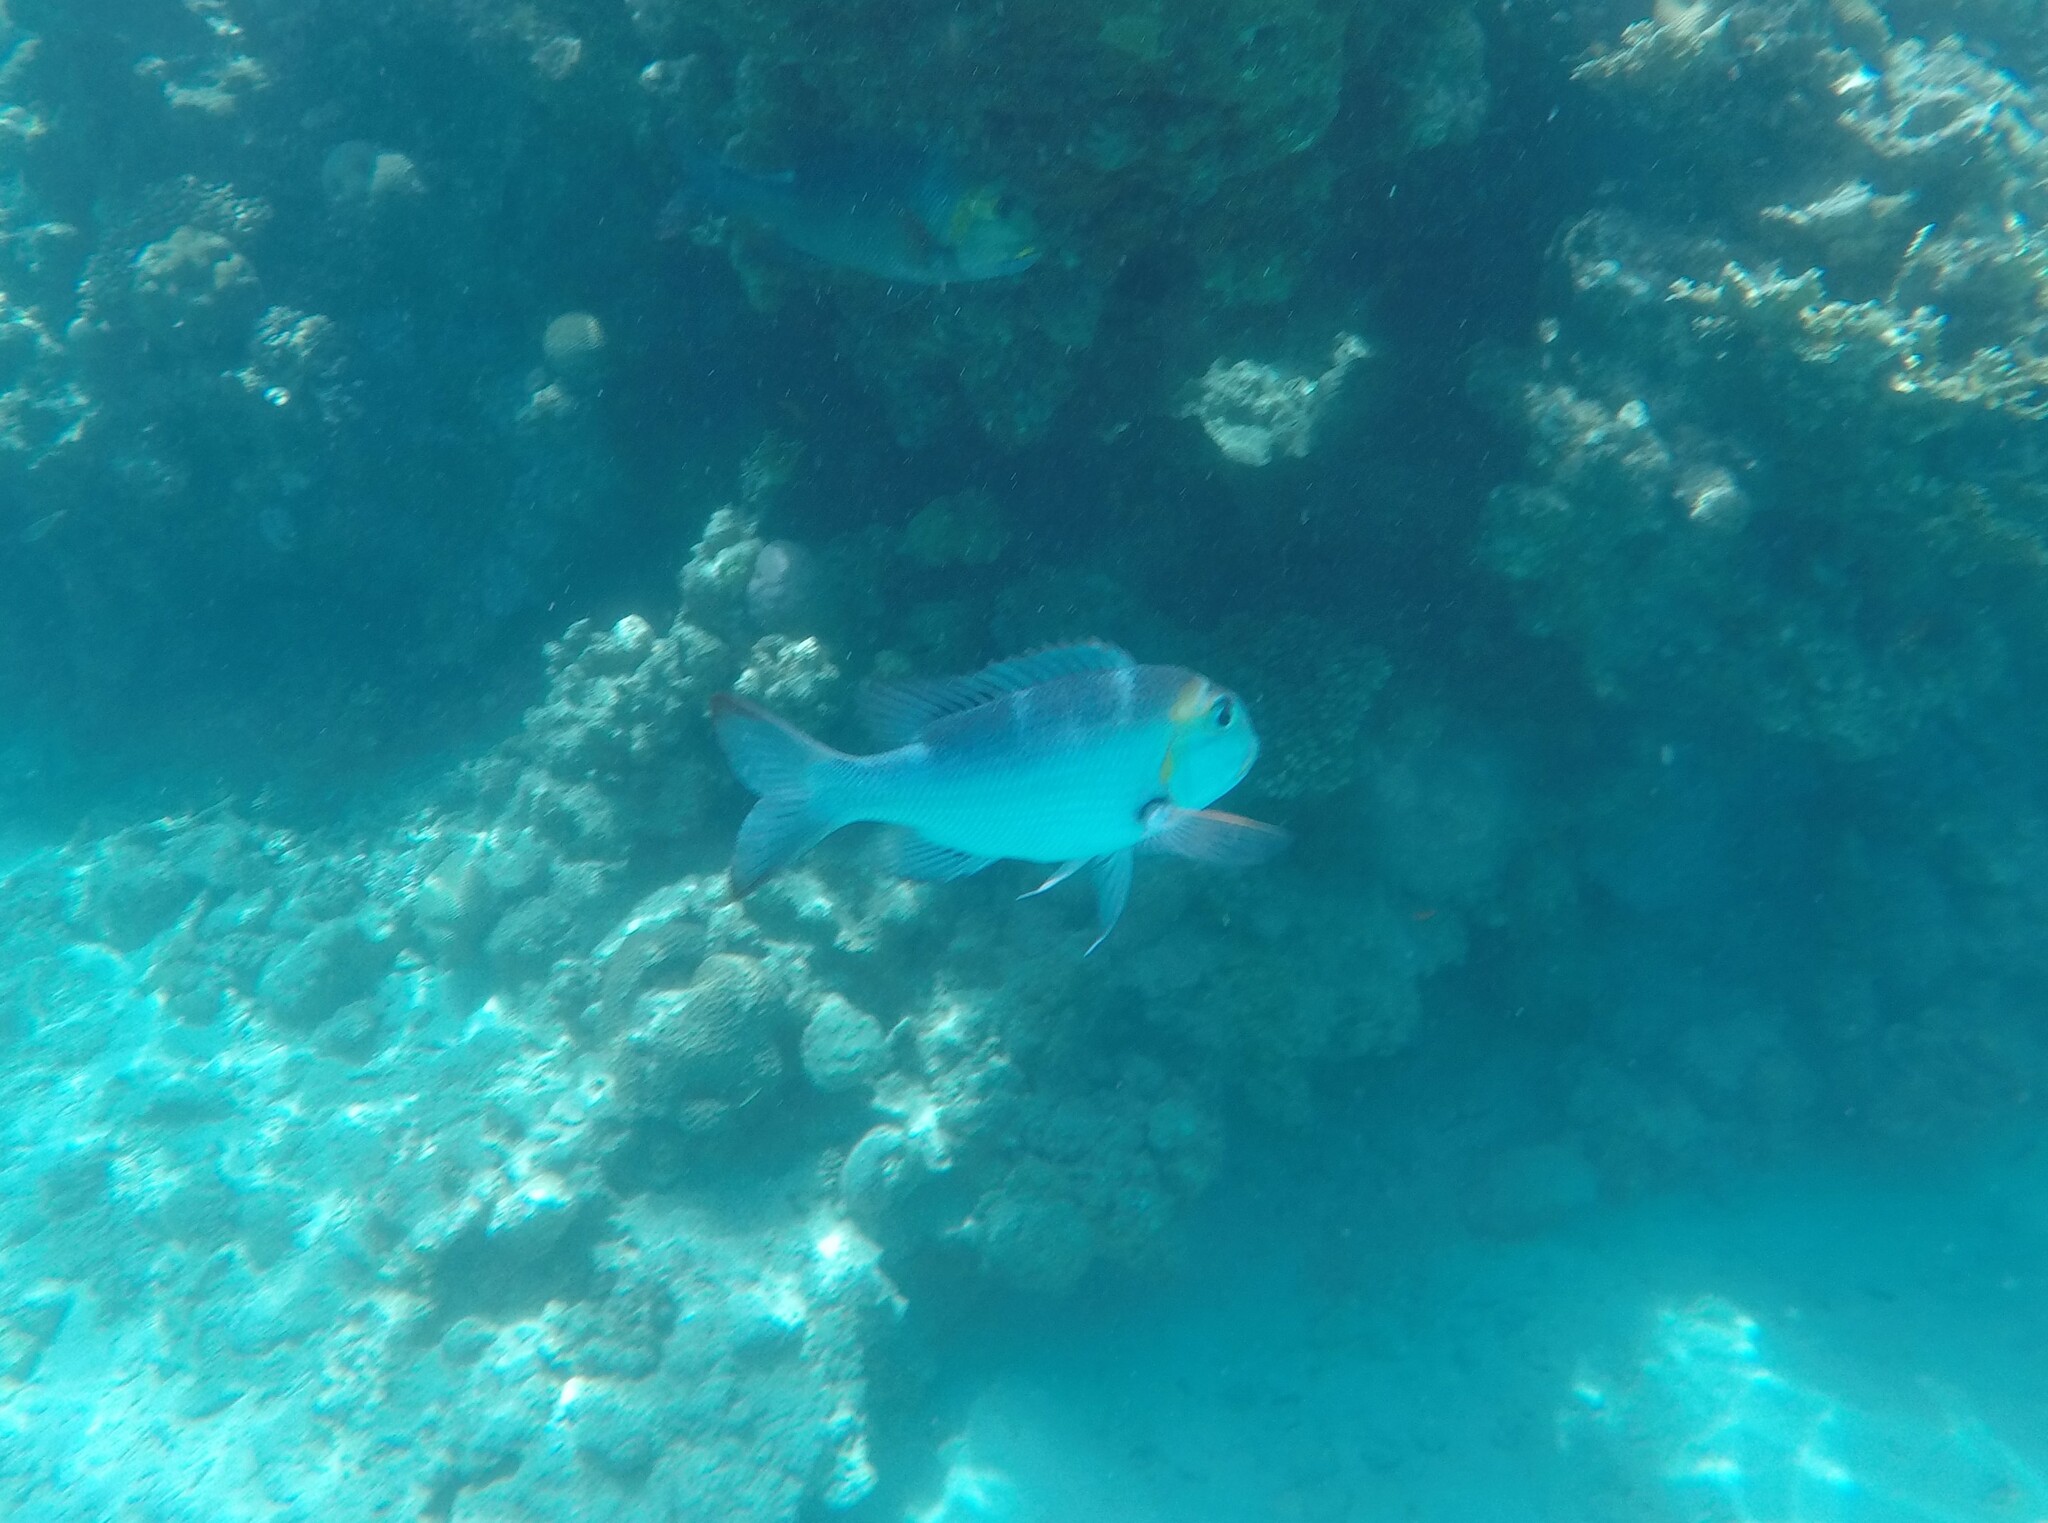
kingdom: Animalia
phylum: Chordata
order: Perciformes
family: Lethrinidae
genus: Monotaxis
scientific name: Monotaxis grandoculis
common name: Bigeye emperor
